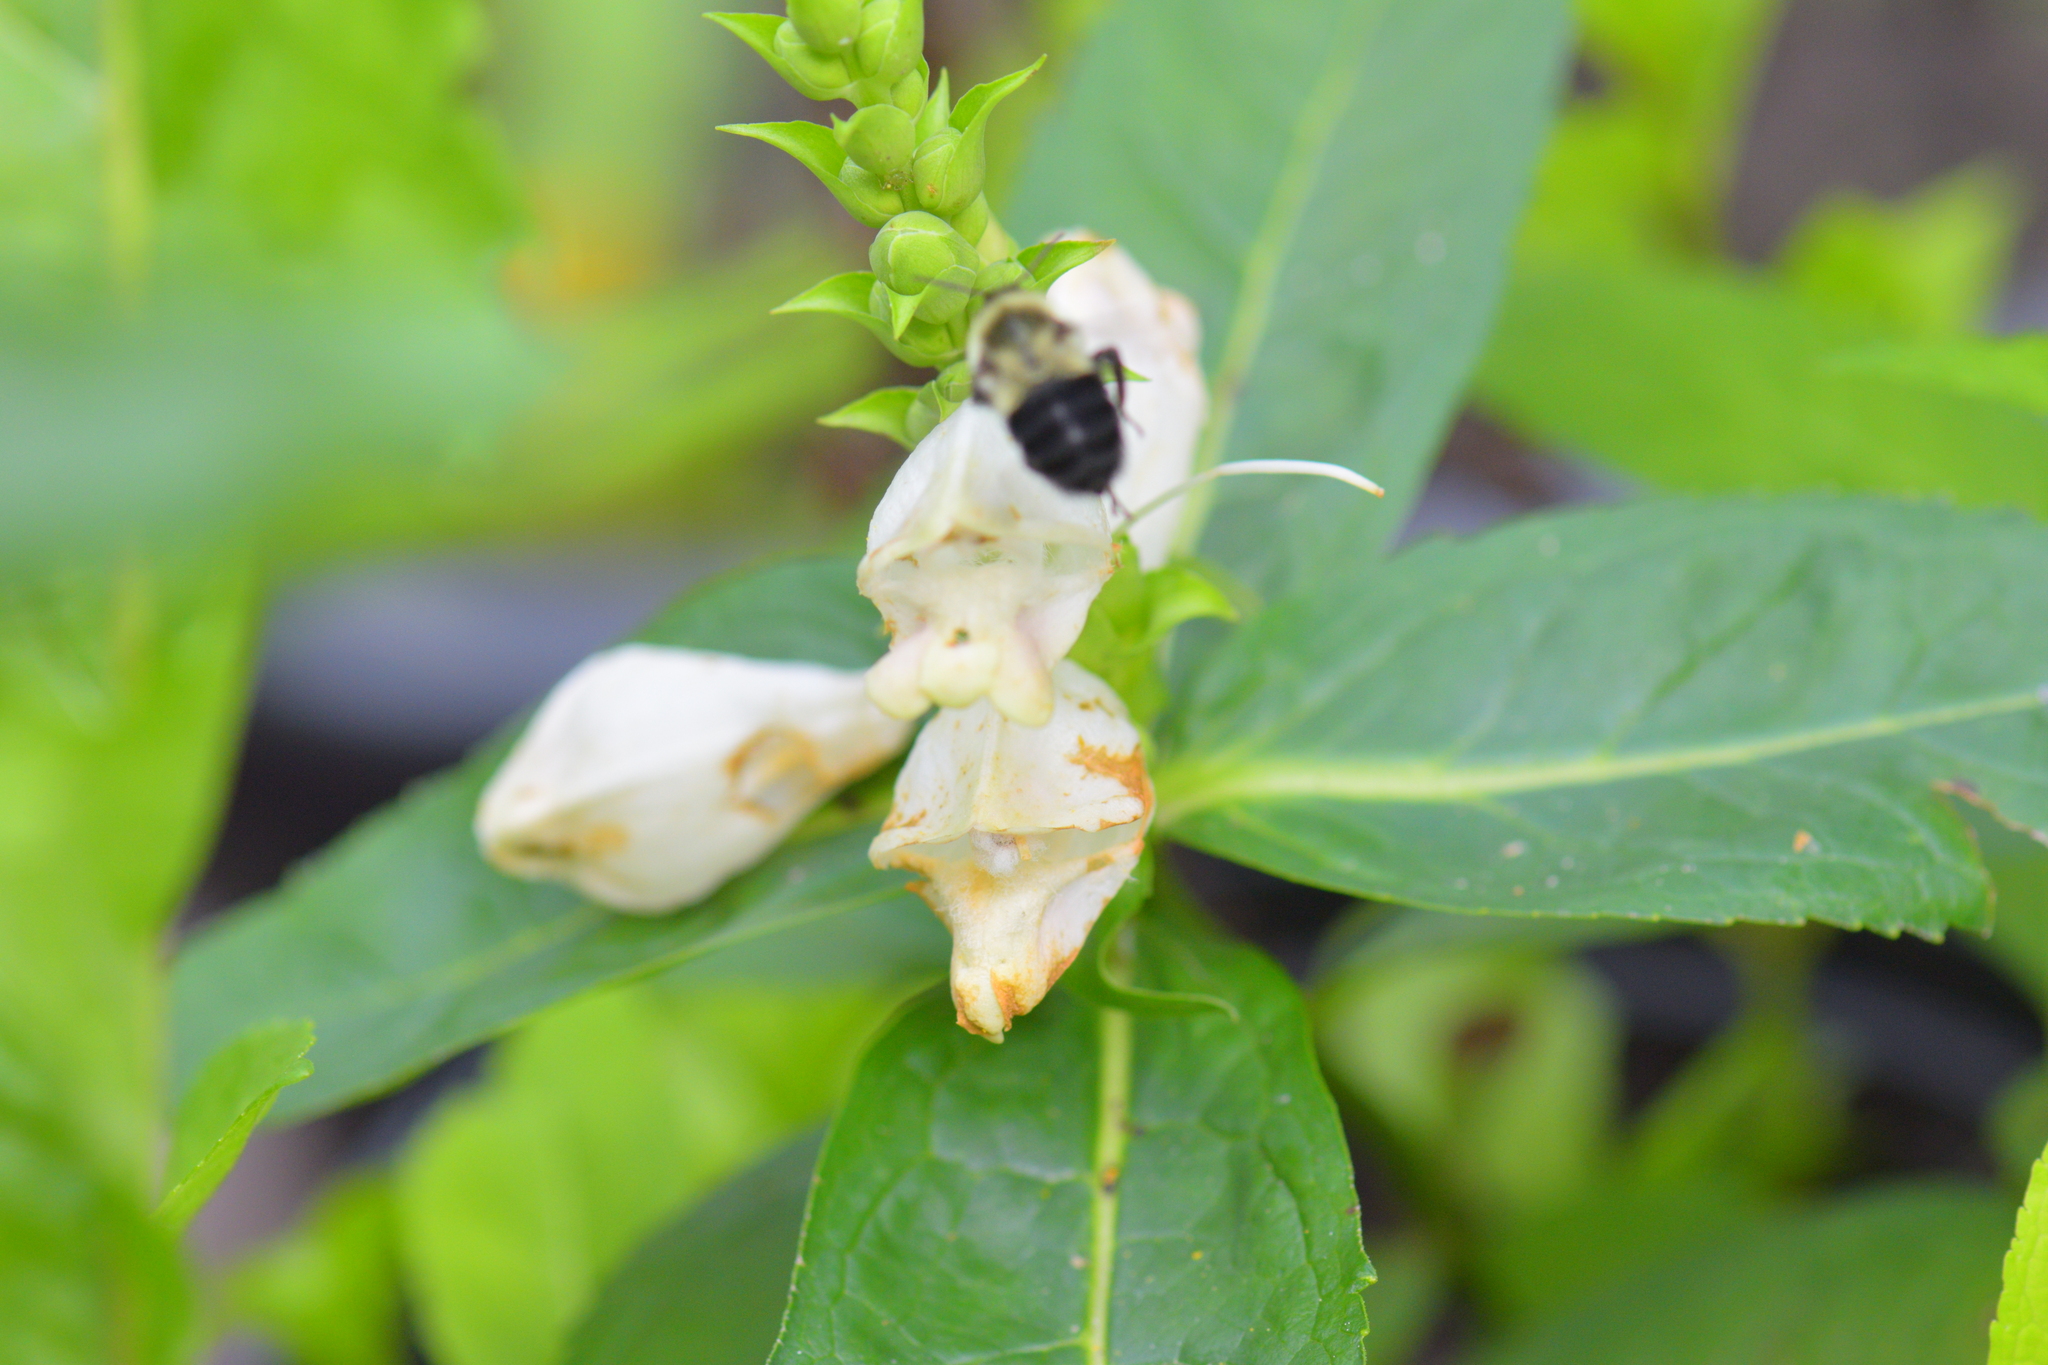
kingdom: Animalia
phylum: Arthropoda
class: Insecta
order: Hymenoptera
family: Apidae
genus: Bombus
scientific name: Bombus impatiens
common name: Common eastern bumble bee
